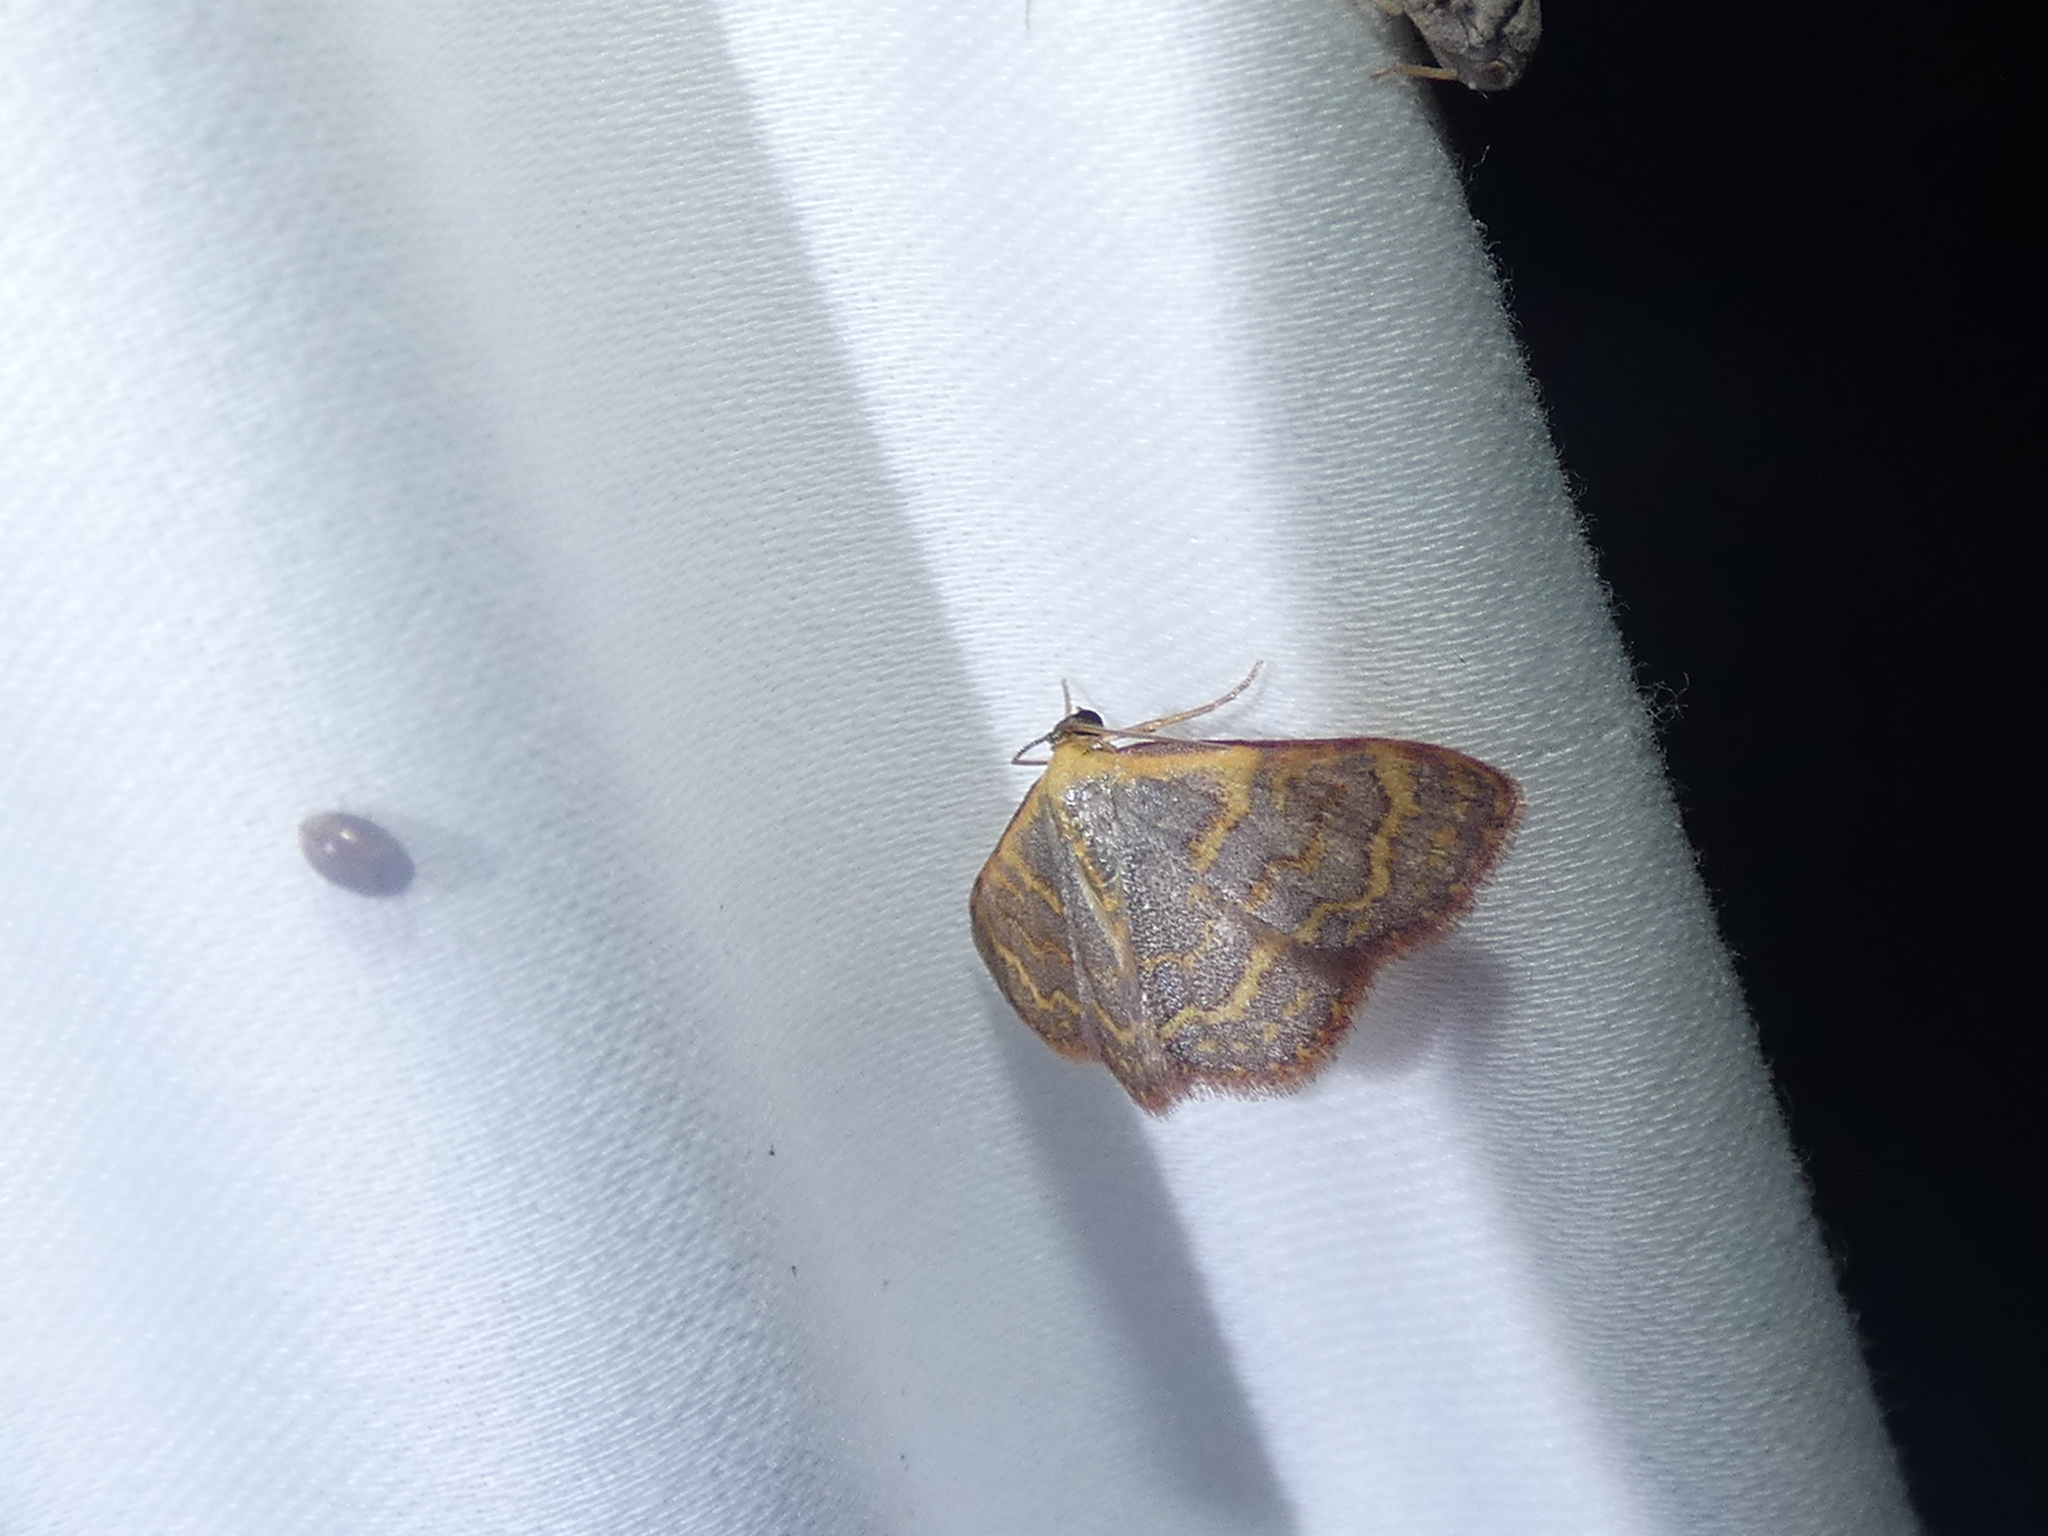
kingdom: Animalia
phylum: Arthropoda
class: Insecta
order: Lepidoptera
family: Geometridae
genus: Leptostales
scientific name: Leptostales pannaria
